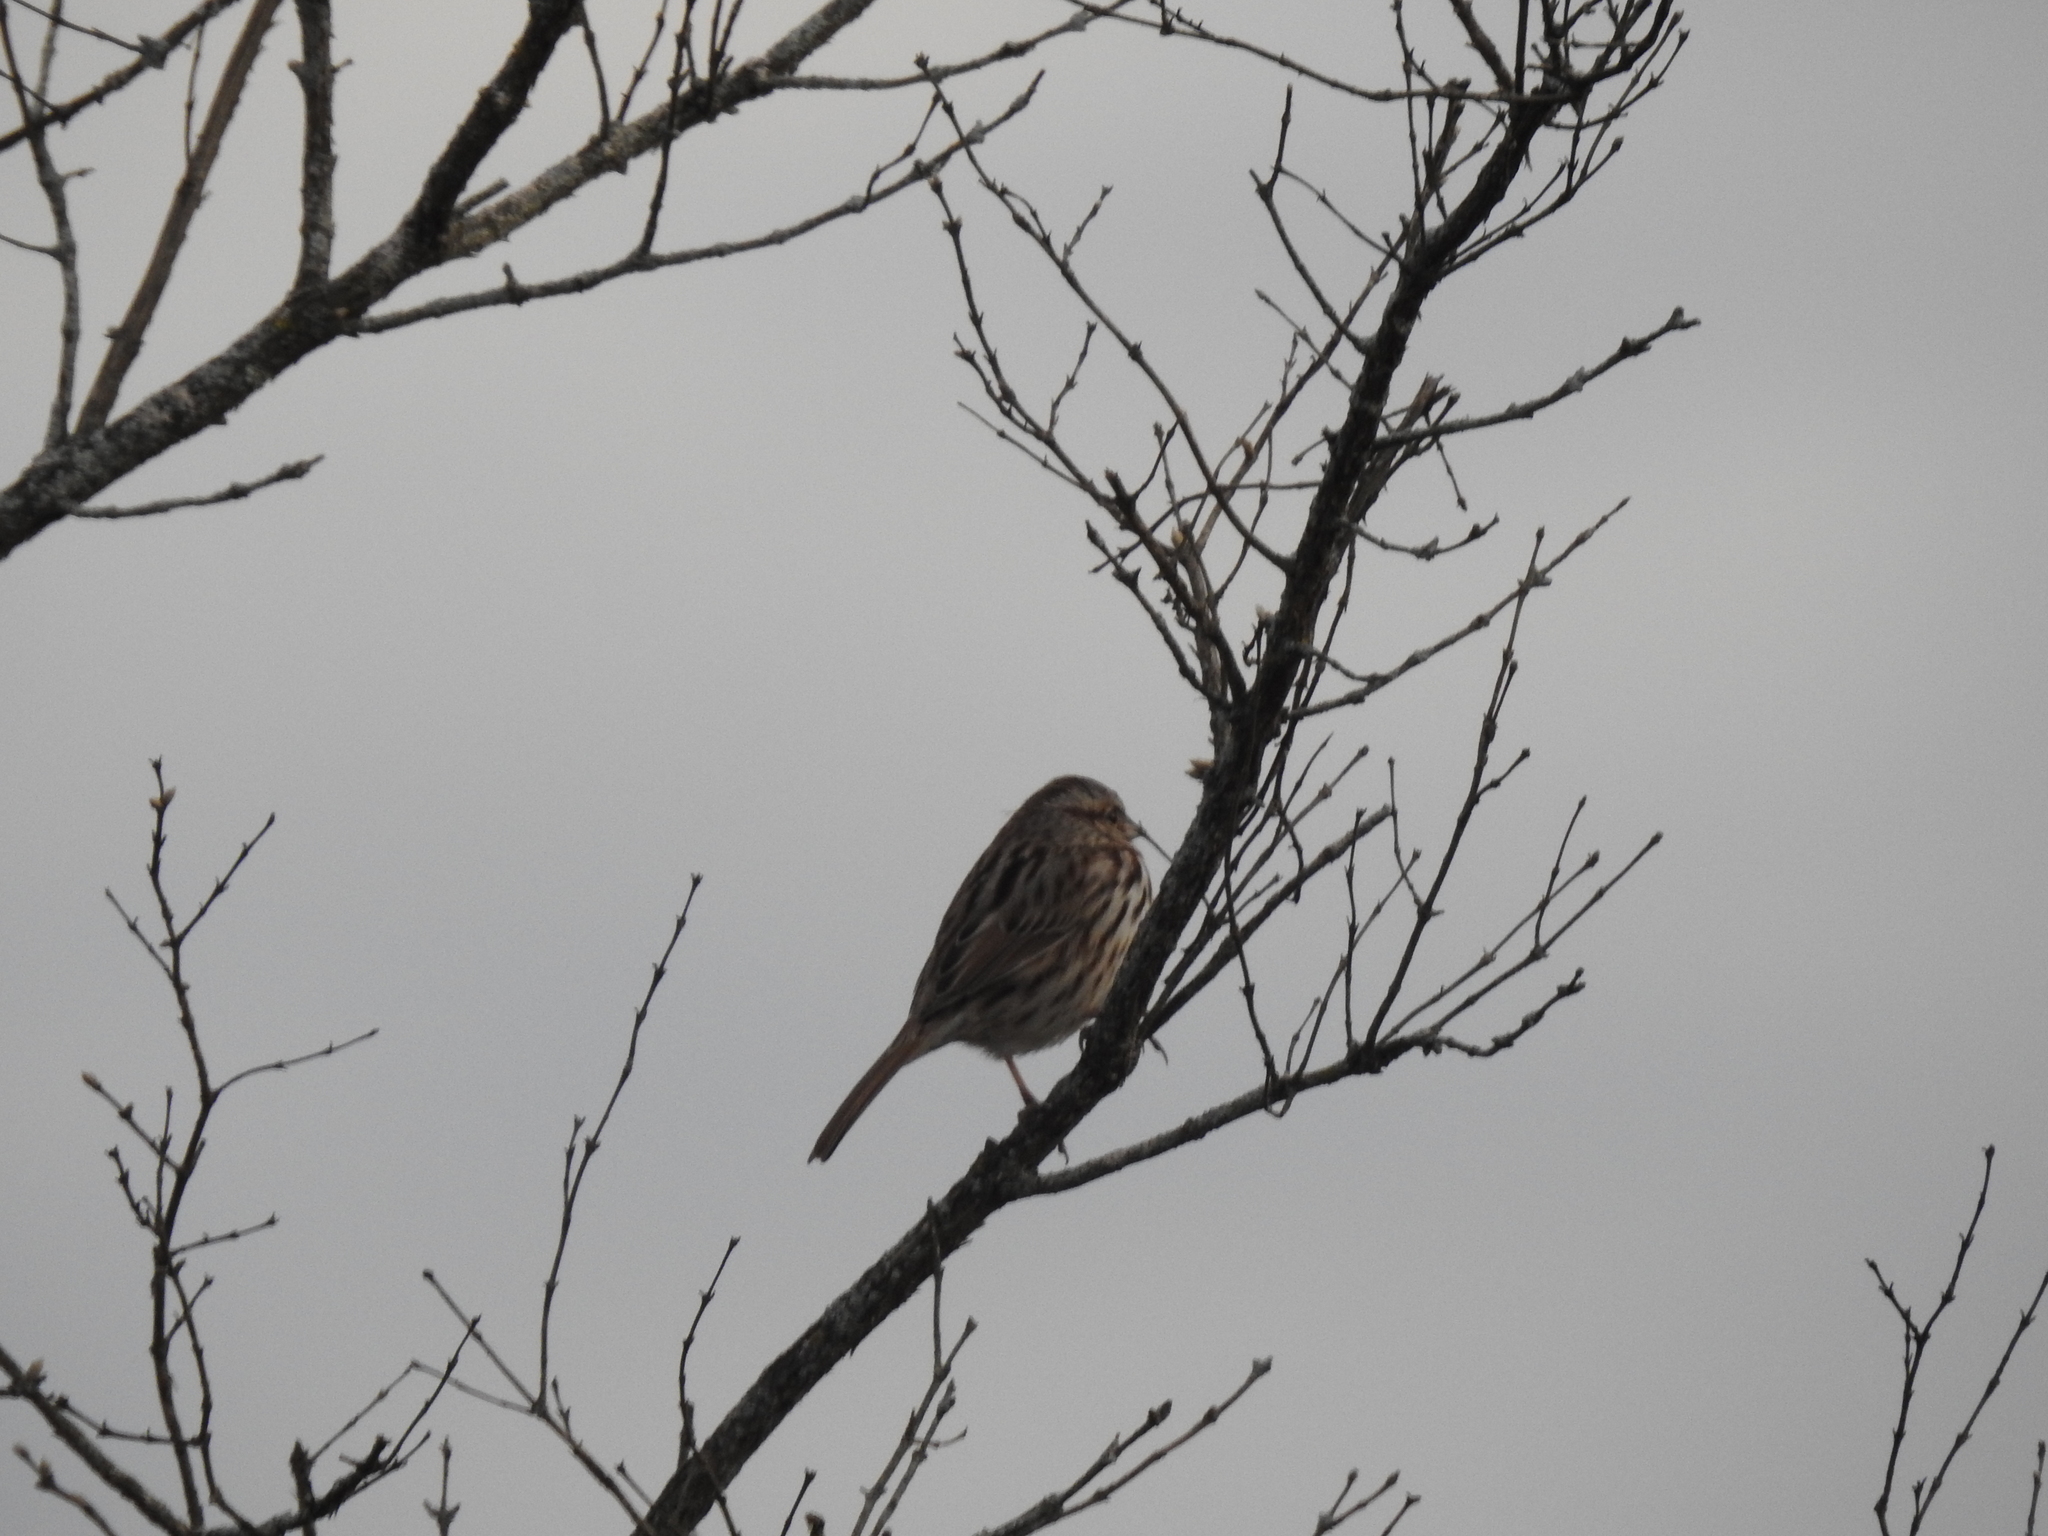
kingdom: Animalia
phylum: Chordata
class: Aves
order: Passeriformes
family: Passerellidae
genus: Melospiza
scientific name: Melospiza melodia
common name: Song sparrow
